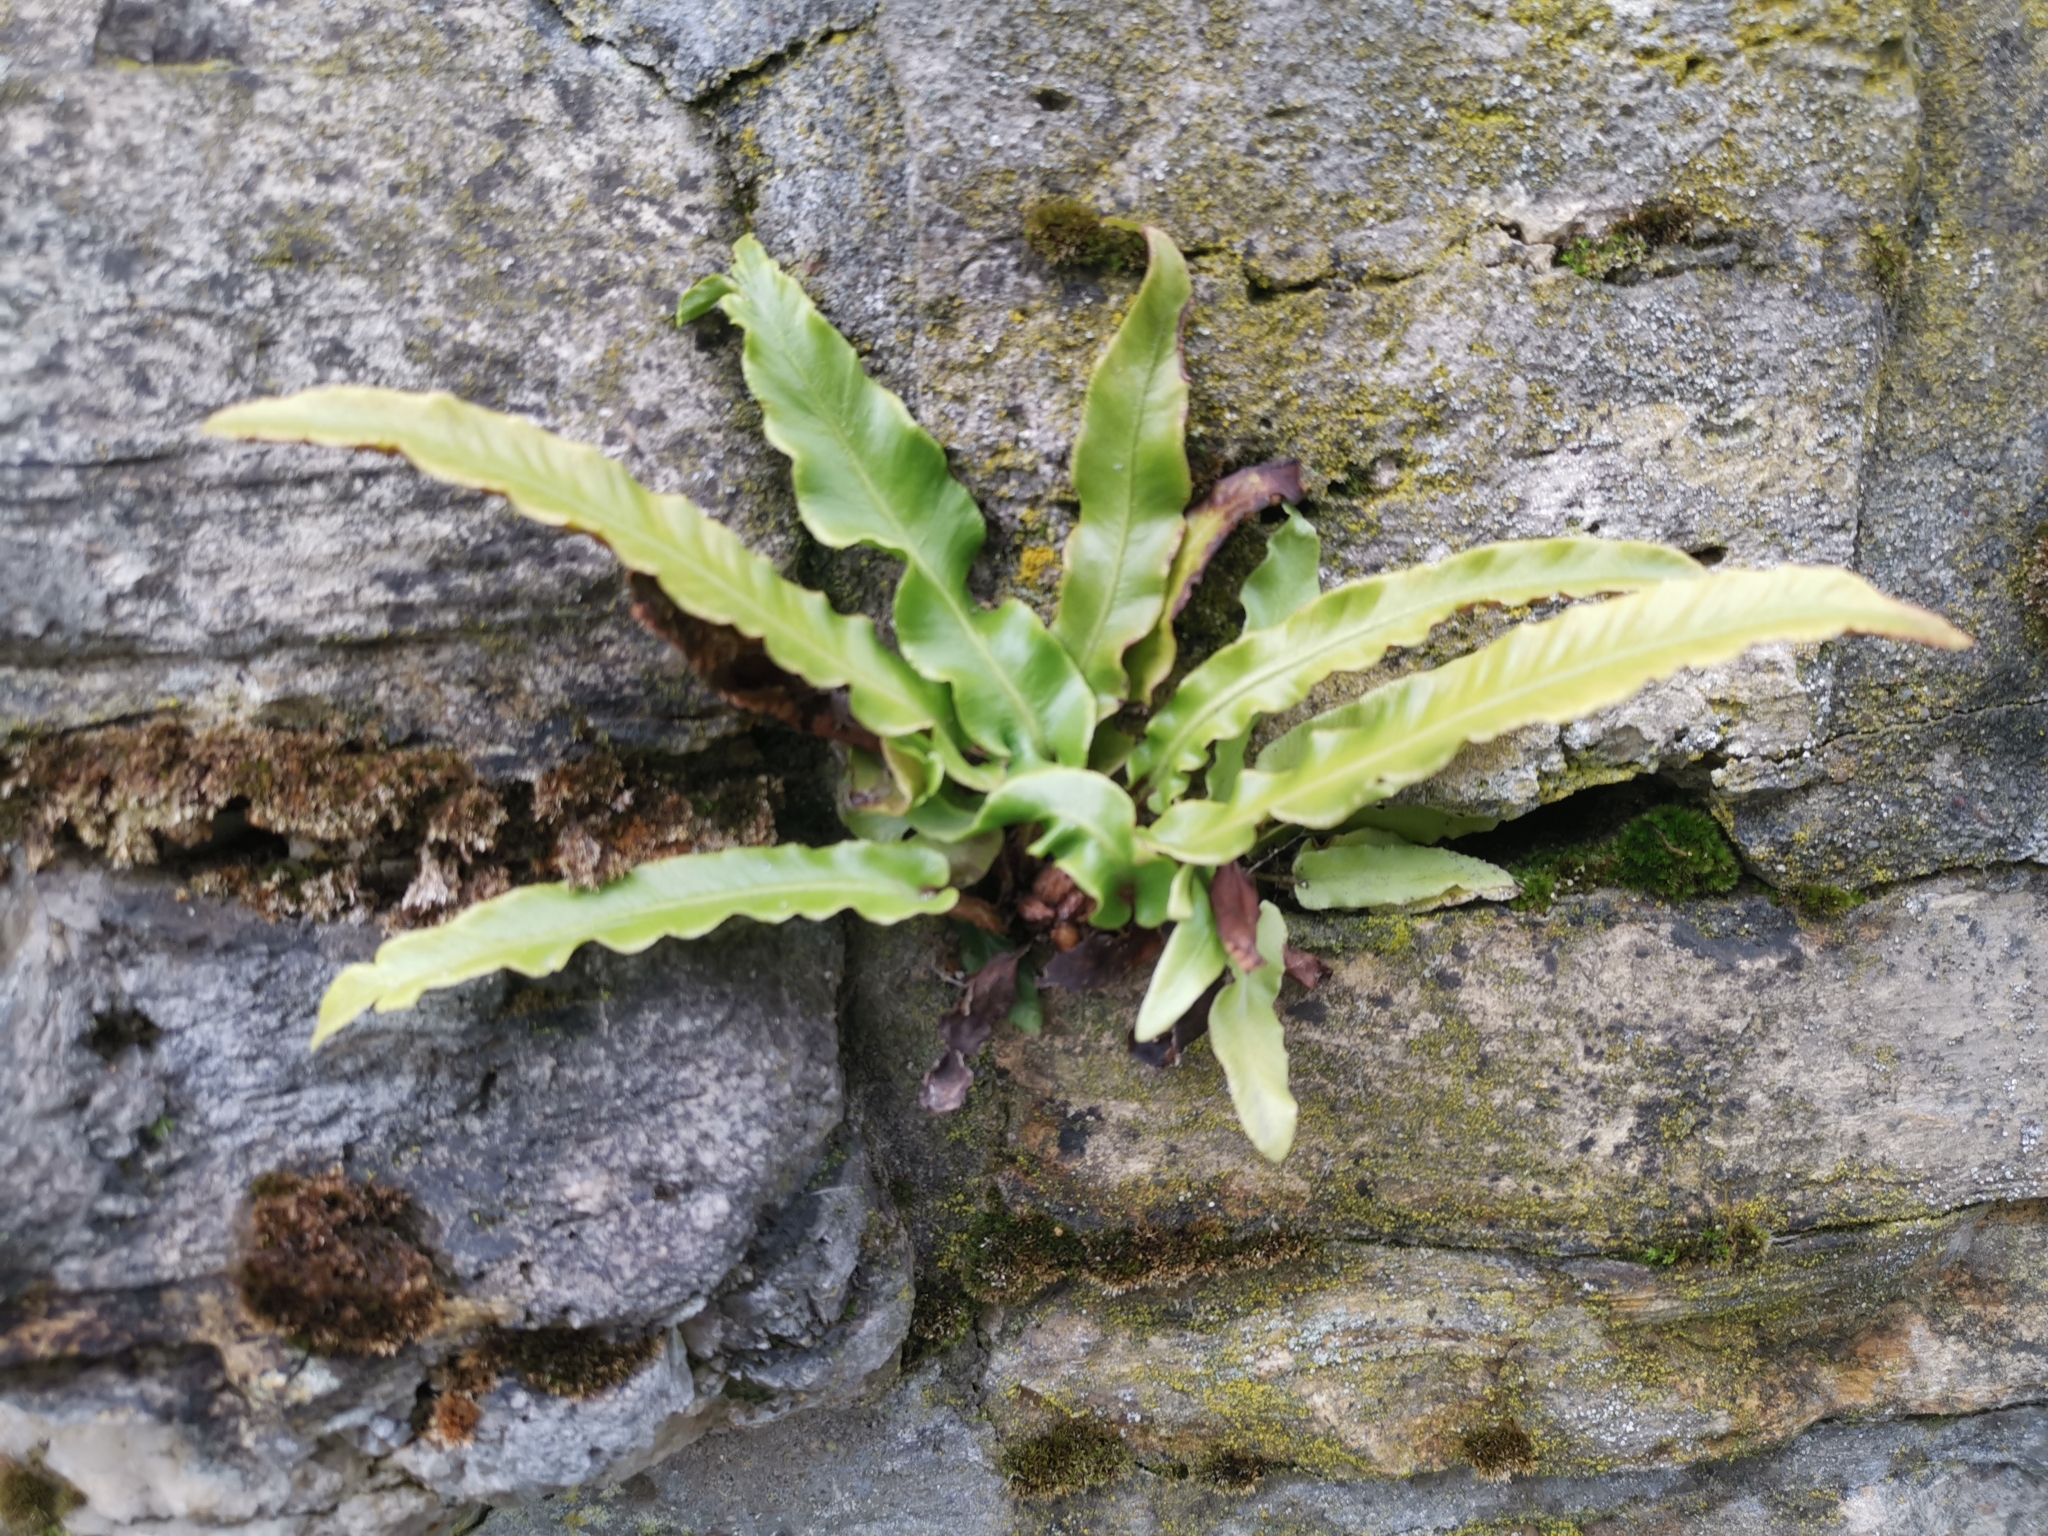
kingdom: Plantae
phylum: Tracheophyta
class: Polypodiopsida
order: Polypodiales
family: Aspleniaceae
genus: Asplenium
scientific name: Asplenium scolopendrium
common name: Hart's-tongue fern
